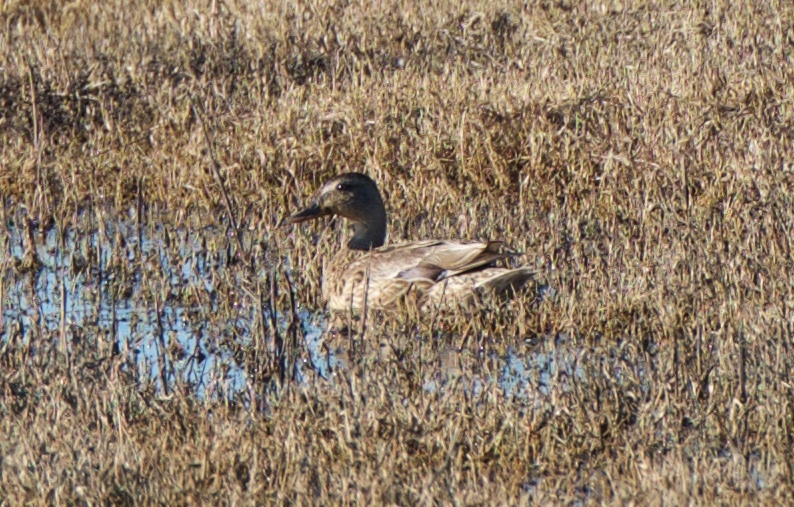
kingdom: Animalia
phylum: Chordata
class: Aves
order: Anseriformes
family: Anatidae
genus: Anas
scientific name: Anas platyrhynchos
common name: Mallard
